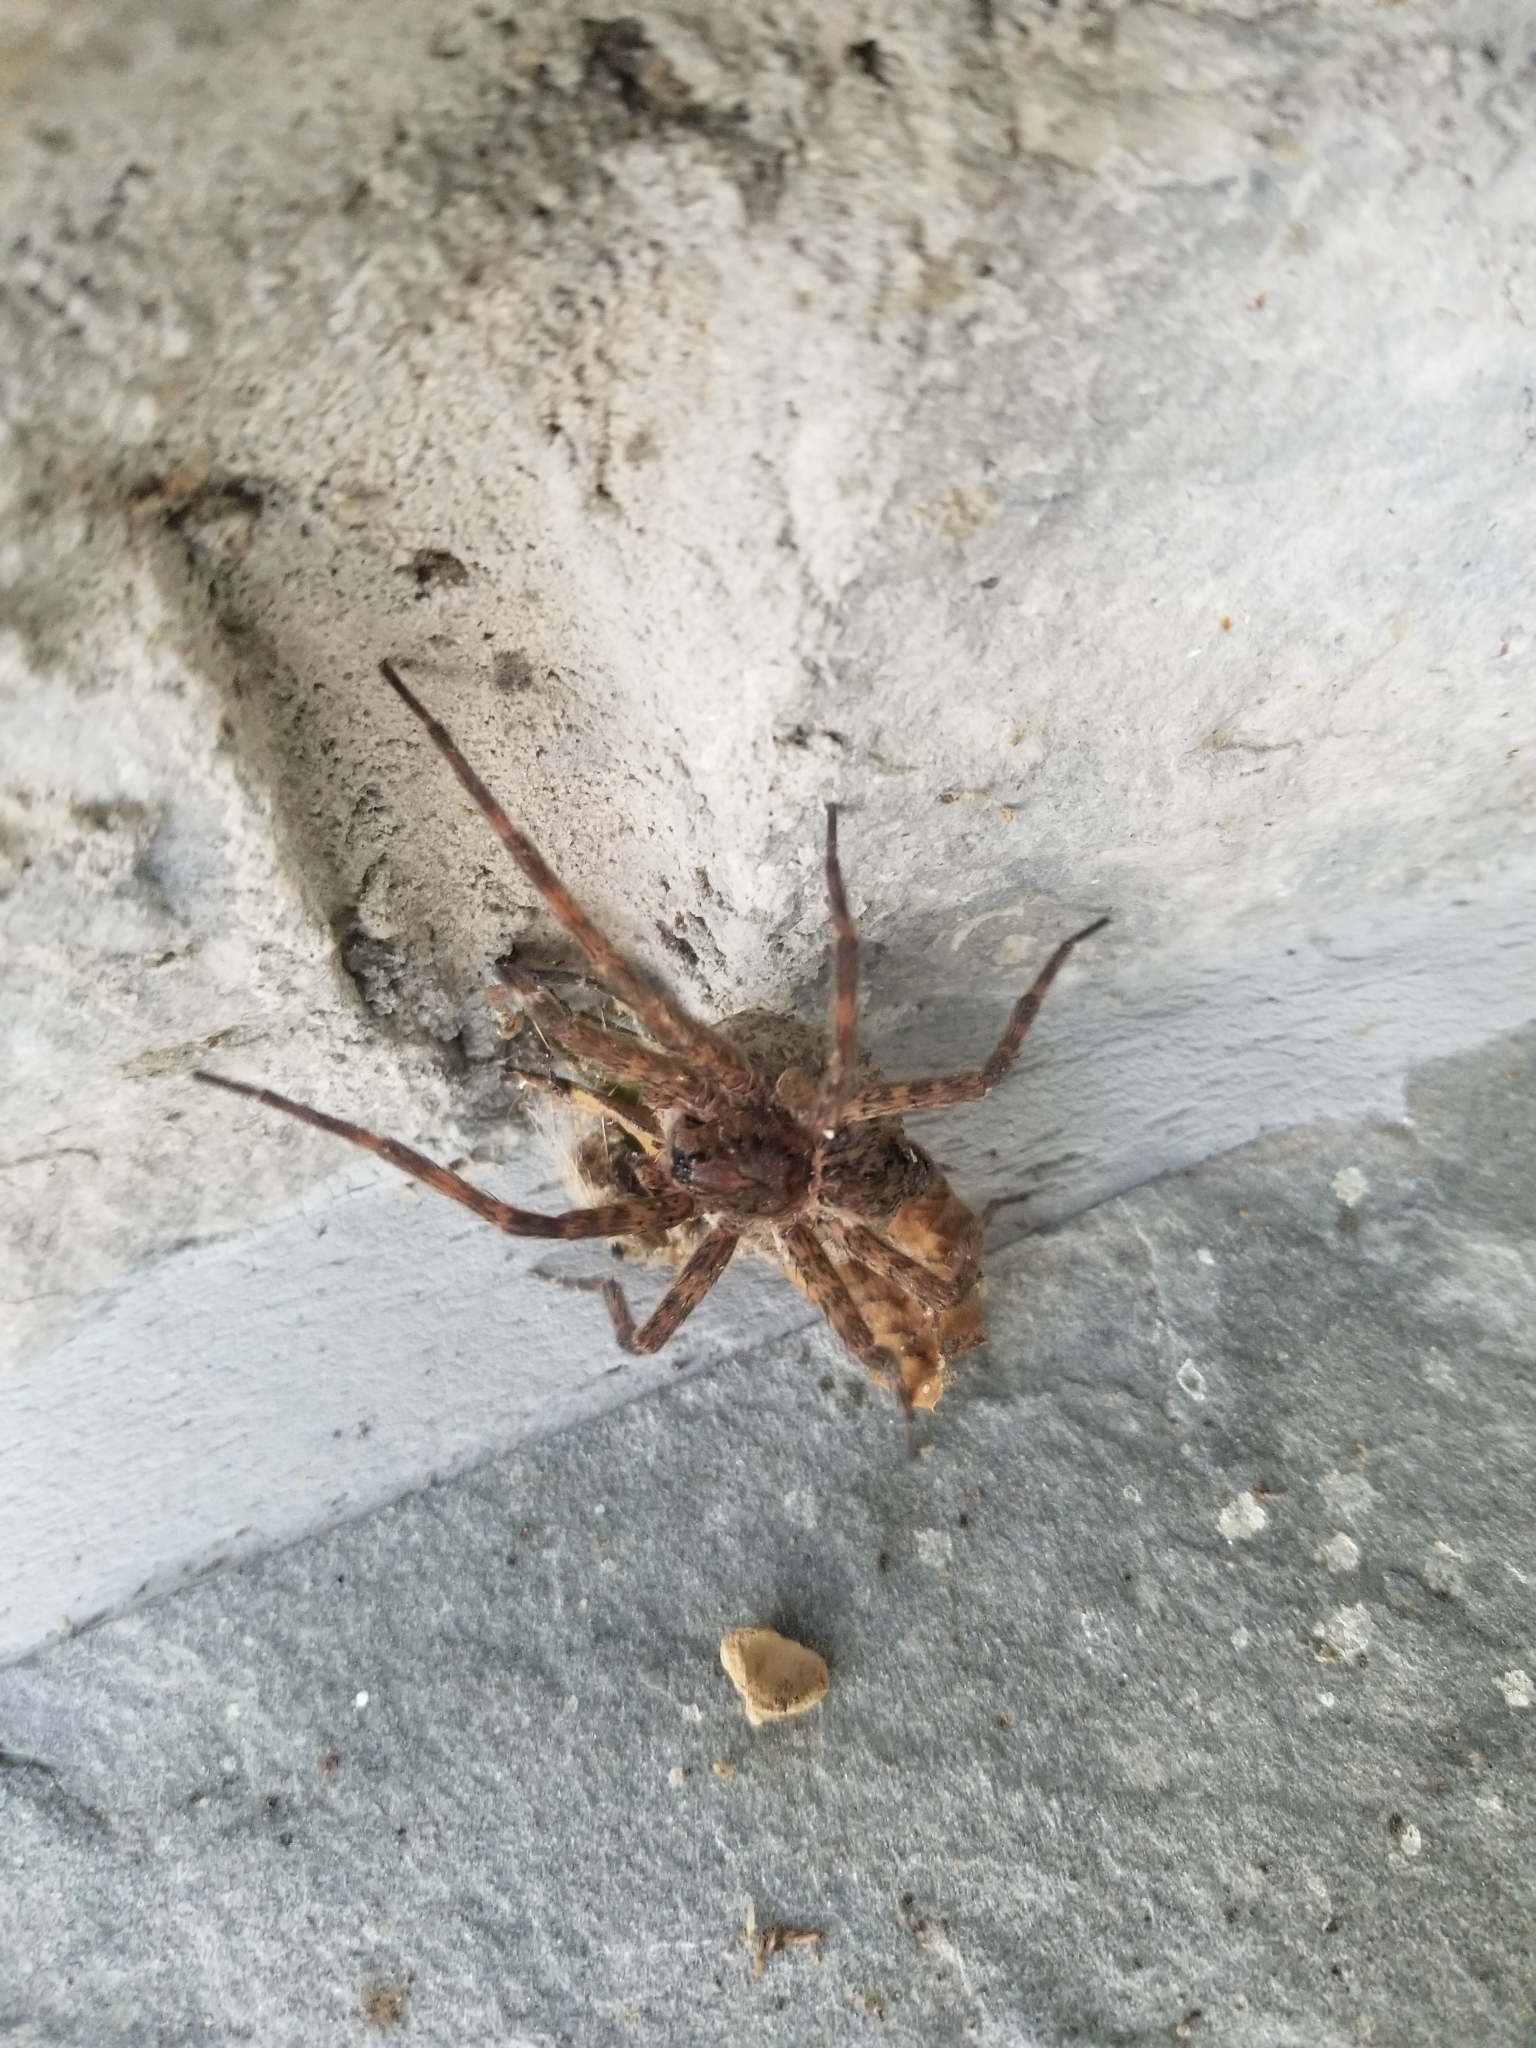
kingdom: Animalia
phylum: Arthropoda
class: Arachnida
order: Araneae
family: Pisauridae
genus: Dolomedes
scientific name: Dolomedes tenebrosus
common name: Dark fishing spider
